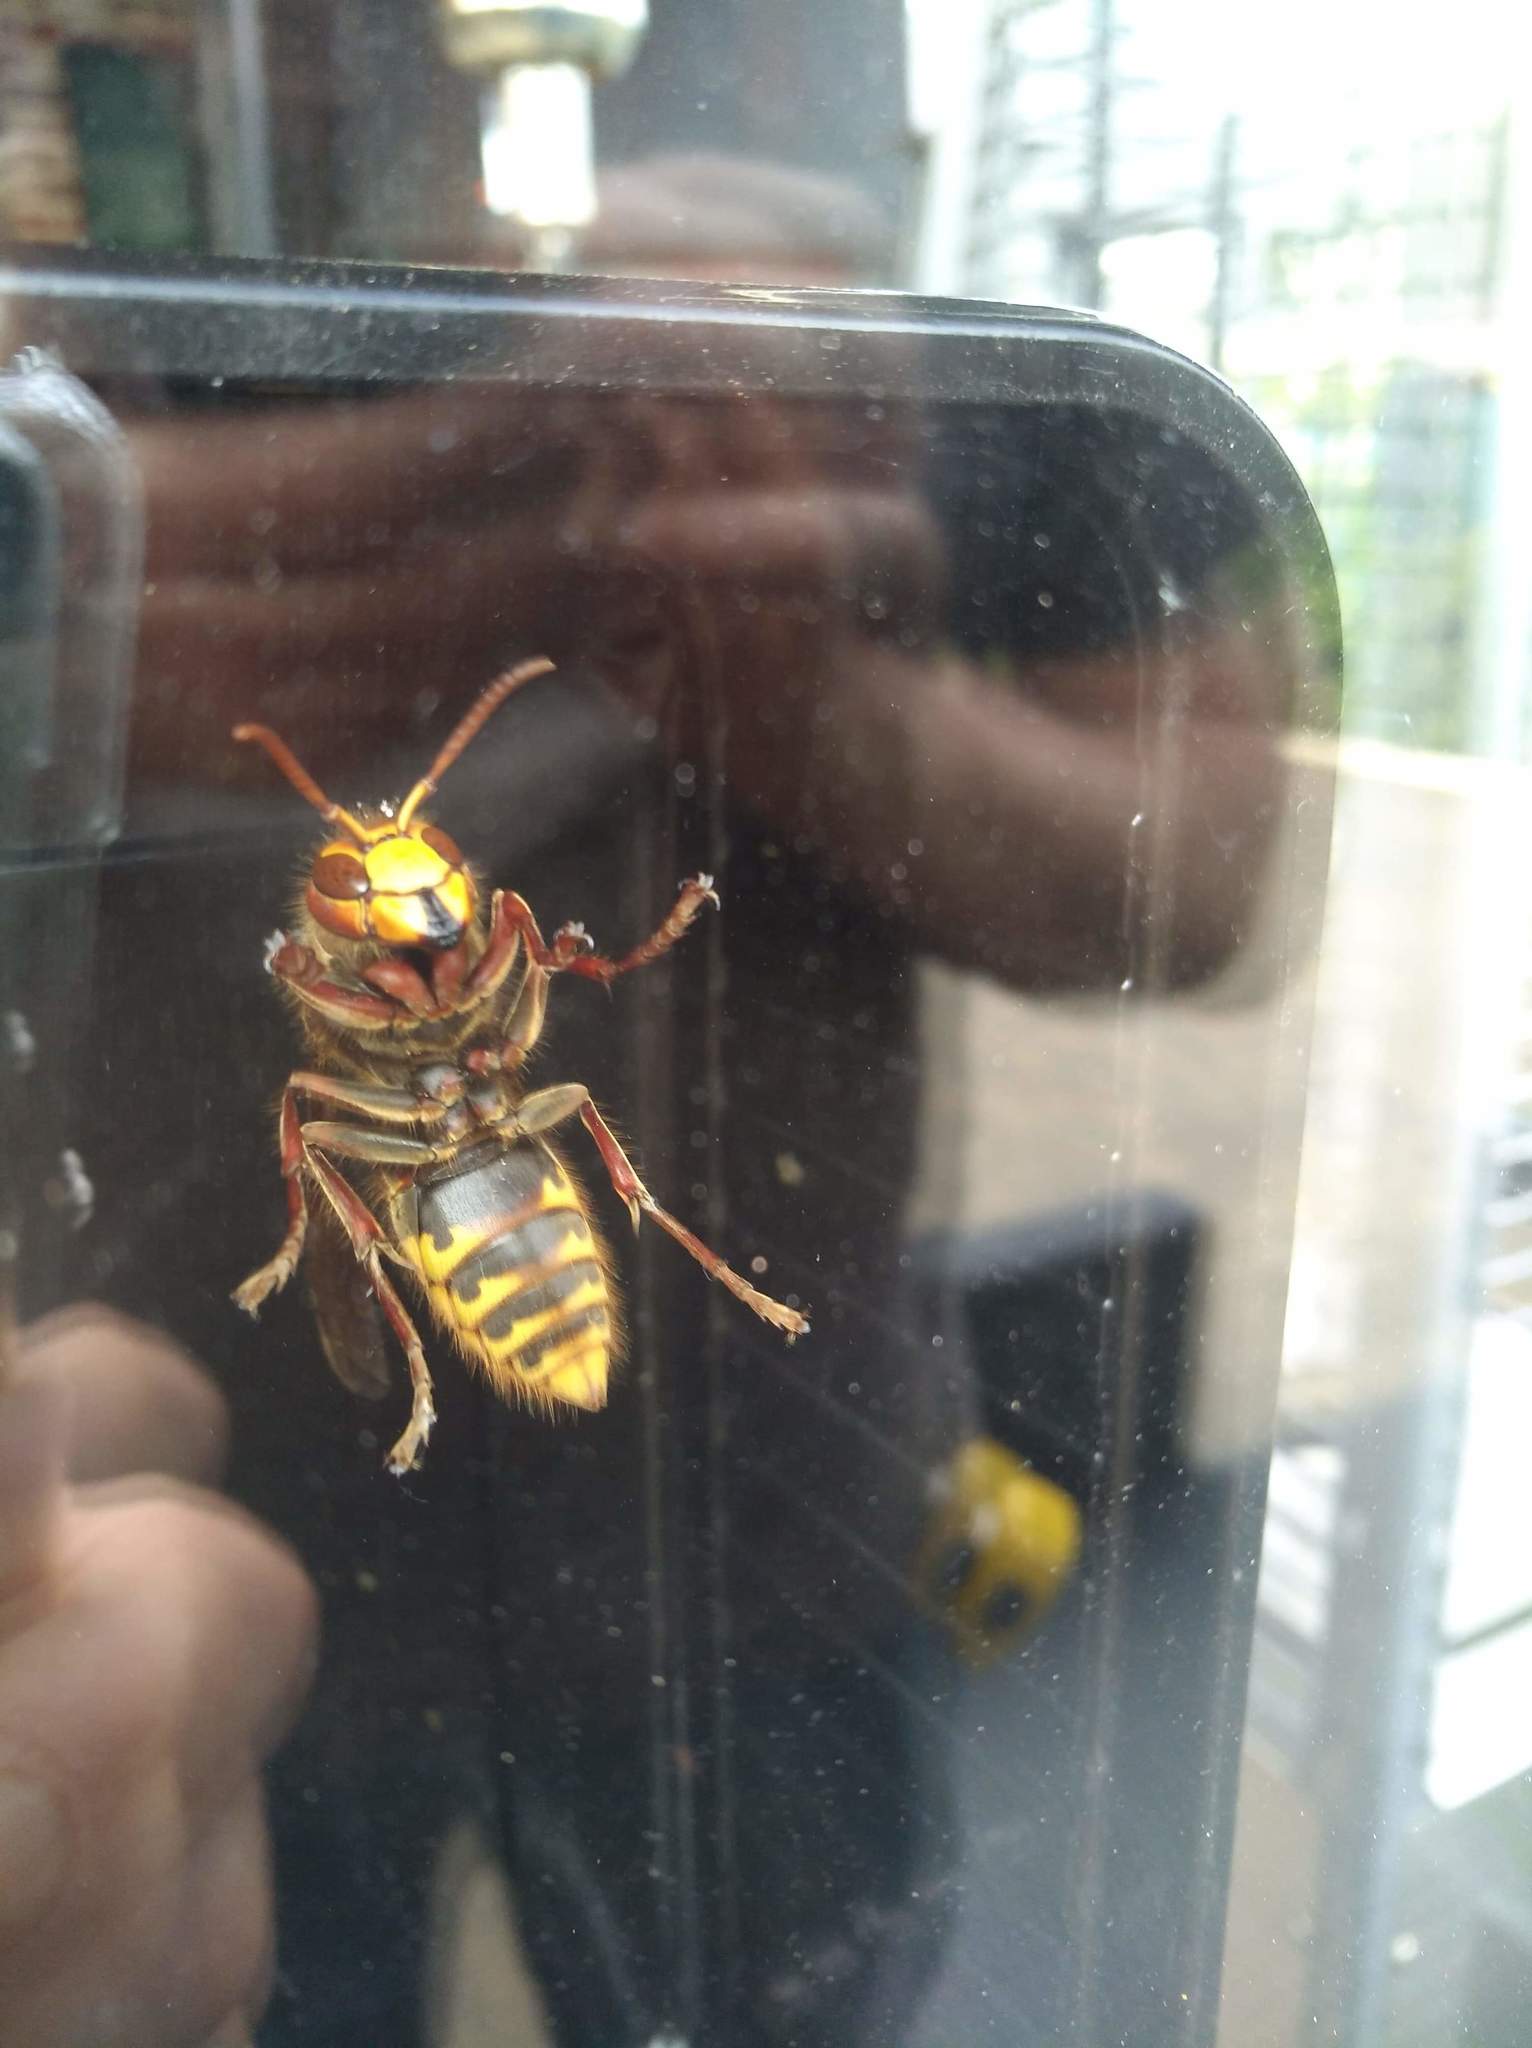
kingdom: Animalia
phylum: Arthropoda
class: Insecta
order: Hymenoptera
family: Vespidae
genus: Vespa
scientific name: Vespa crabro
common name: Hornet
